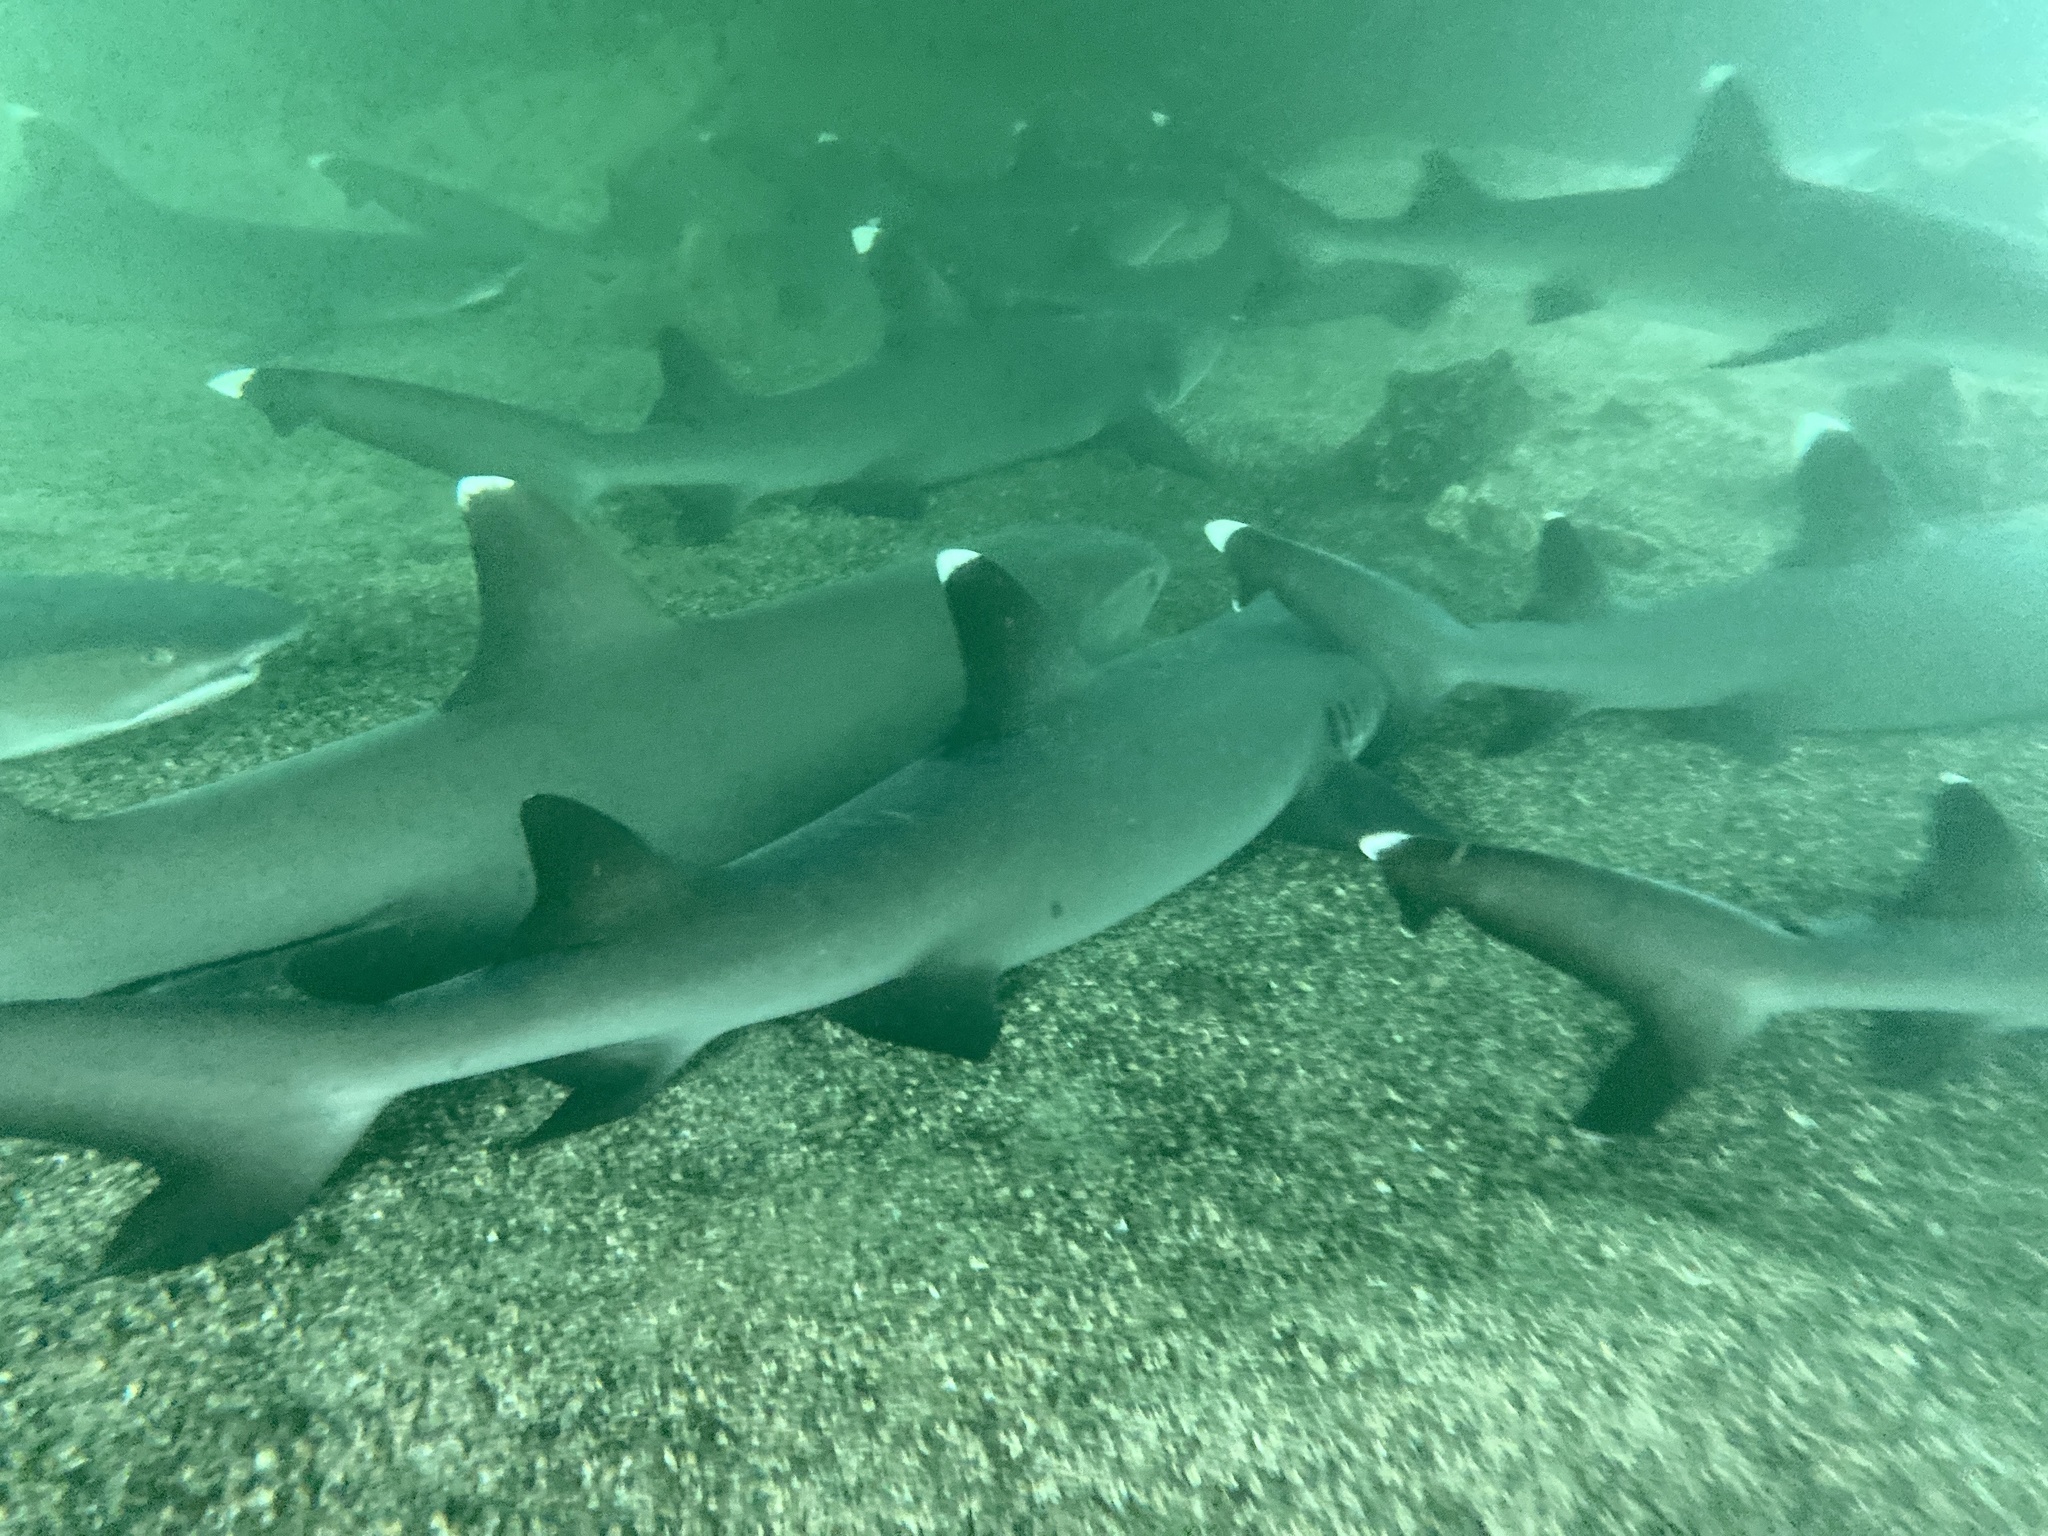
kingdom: Animalia
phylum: Chordata
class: Elasmobranchii
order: Carcharhiniformes
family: Carcharhinidae
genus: Triaenodon
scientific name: Triaenodon obesus
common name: Whitetip reef shark
